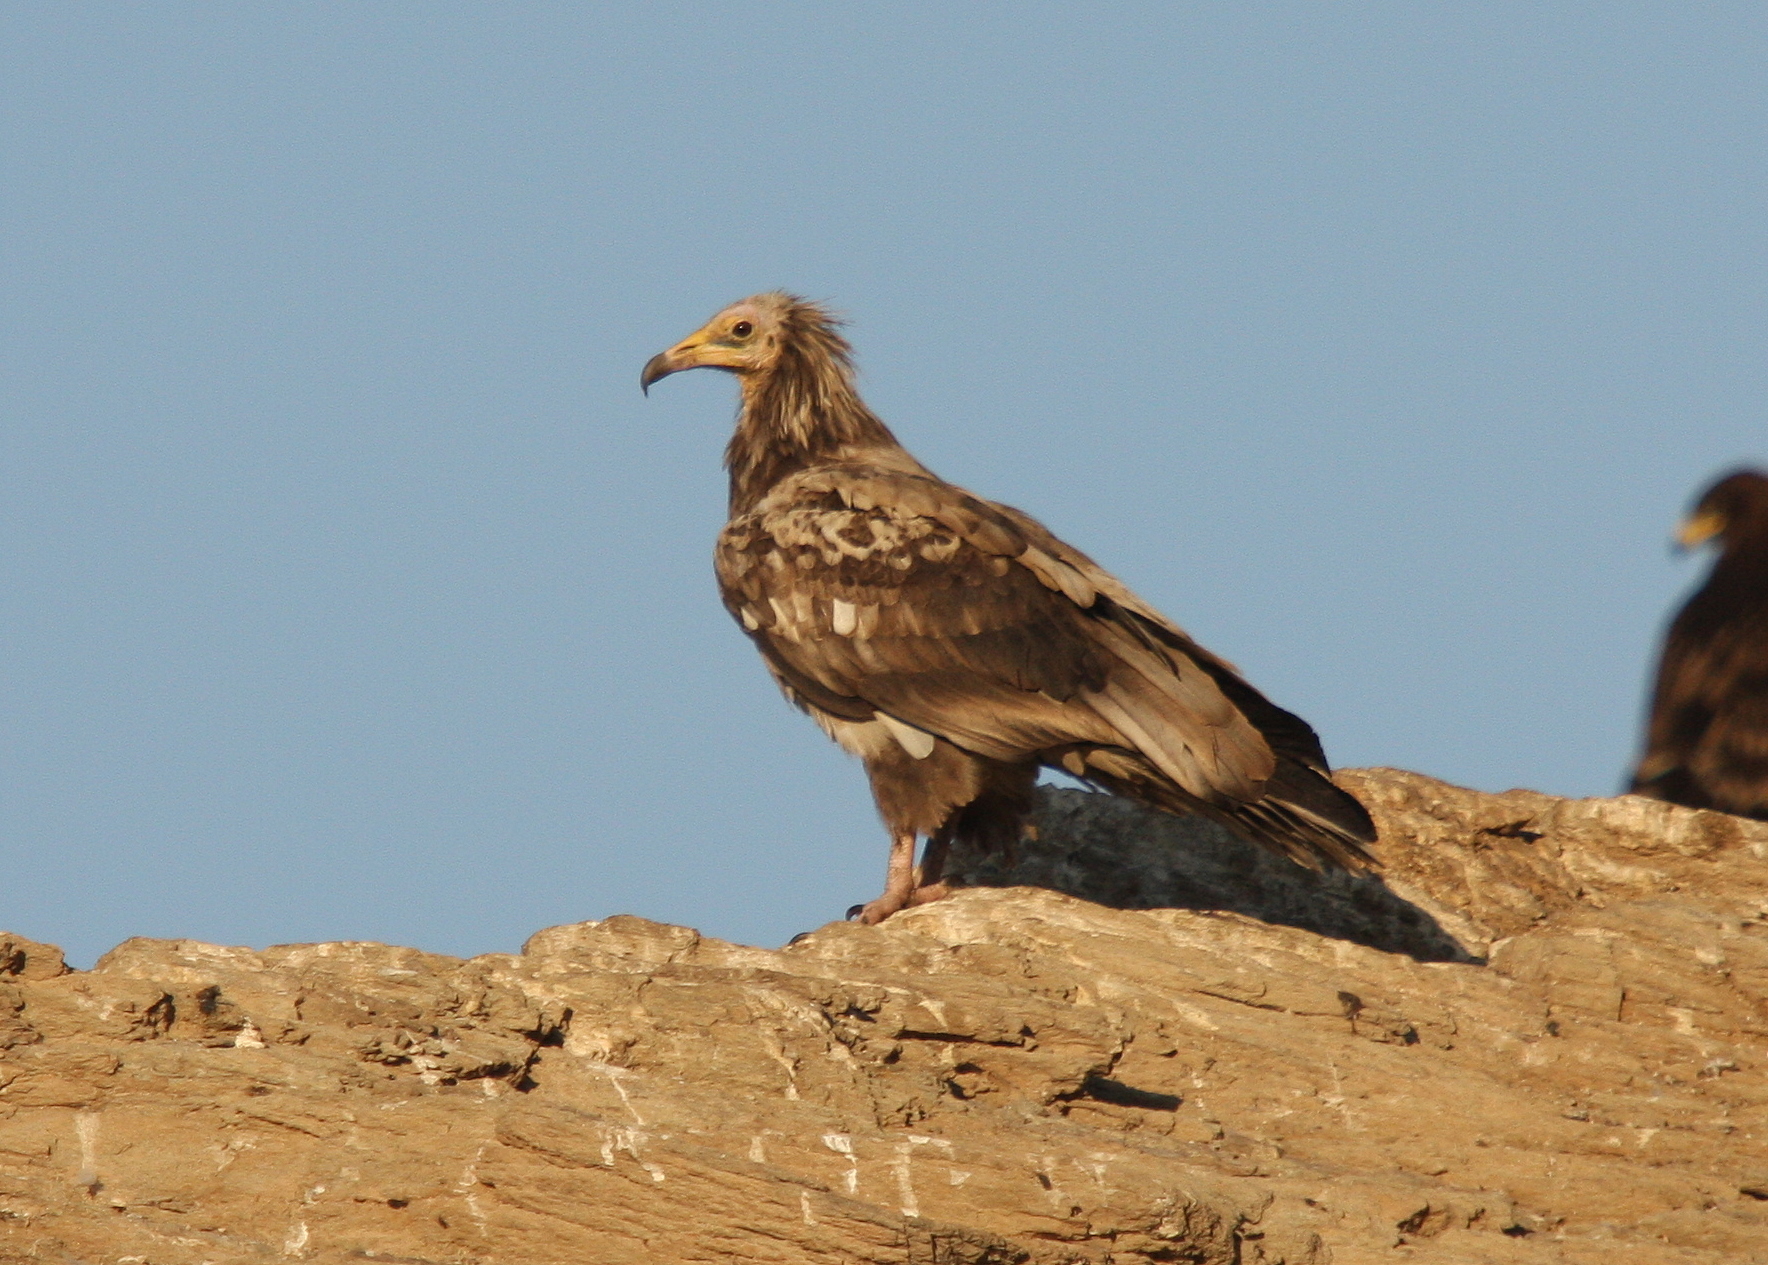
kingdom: Animalia
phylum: Chordata
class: Aves
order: Accipitriformes
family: Accipitridae
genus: Neophron
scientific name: Neophron percnopterus
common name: Egyptian vulture
